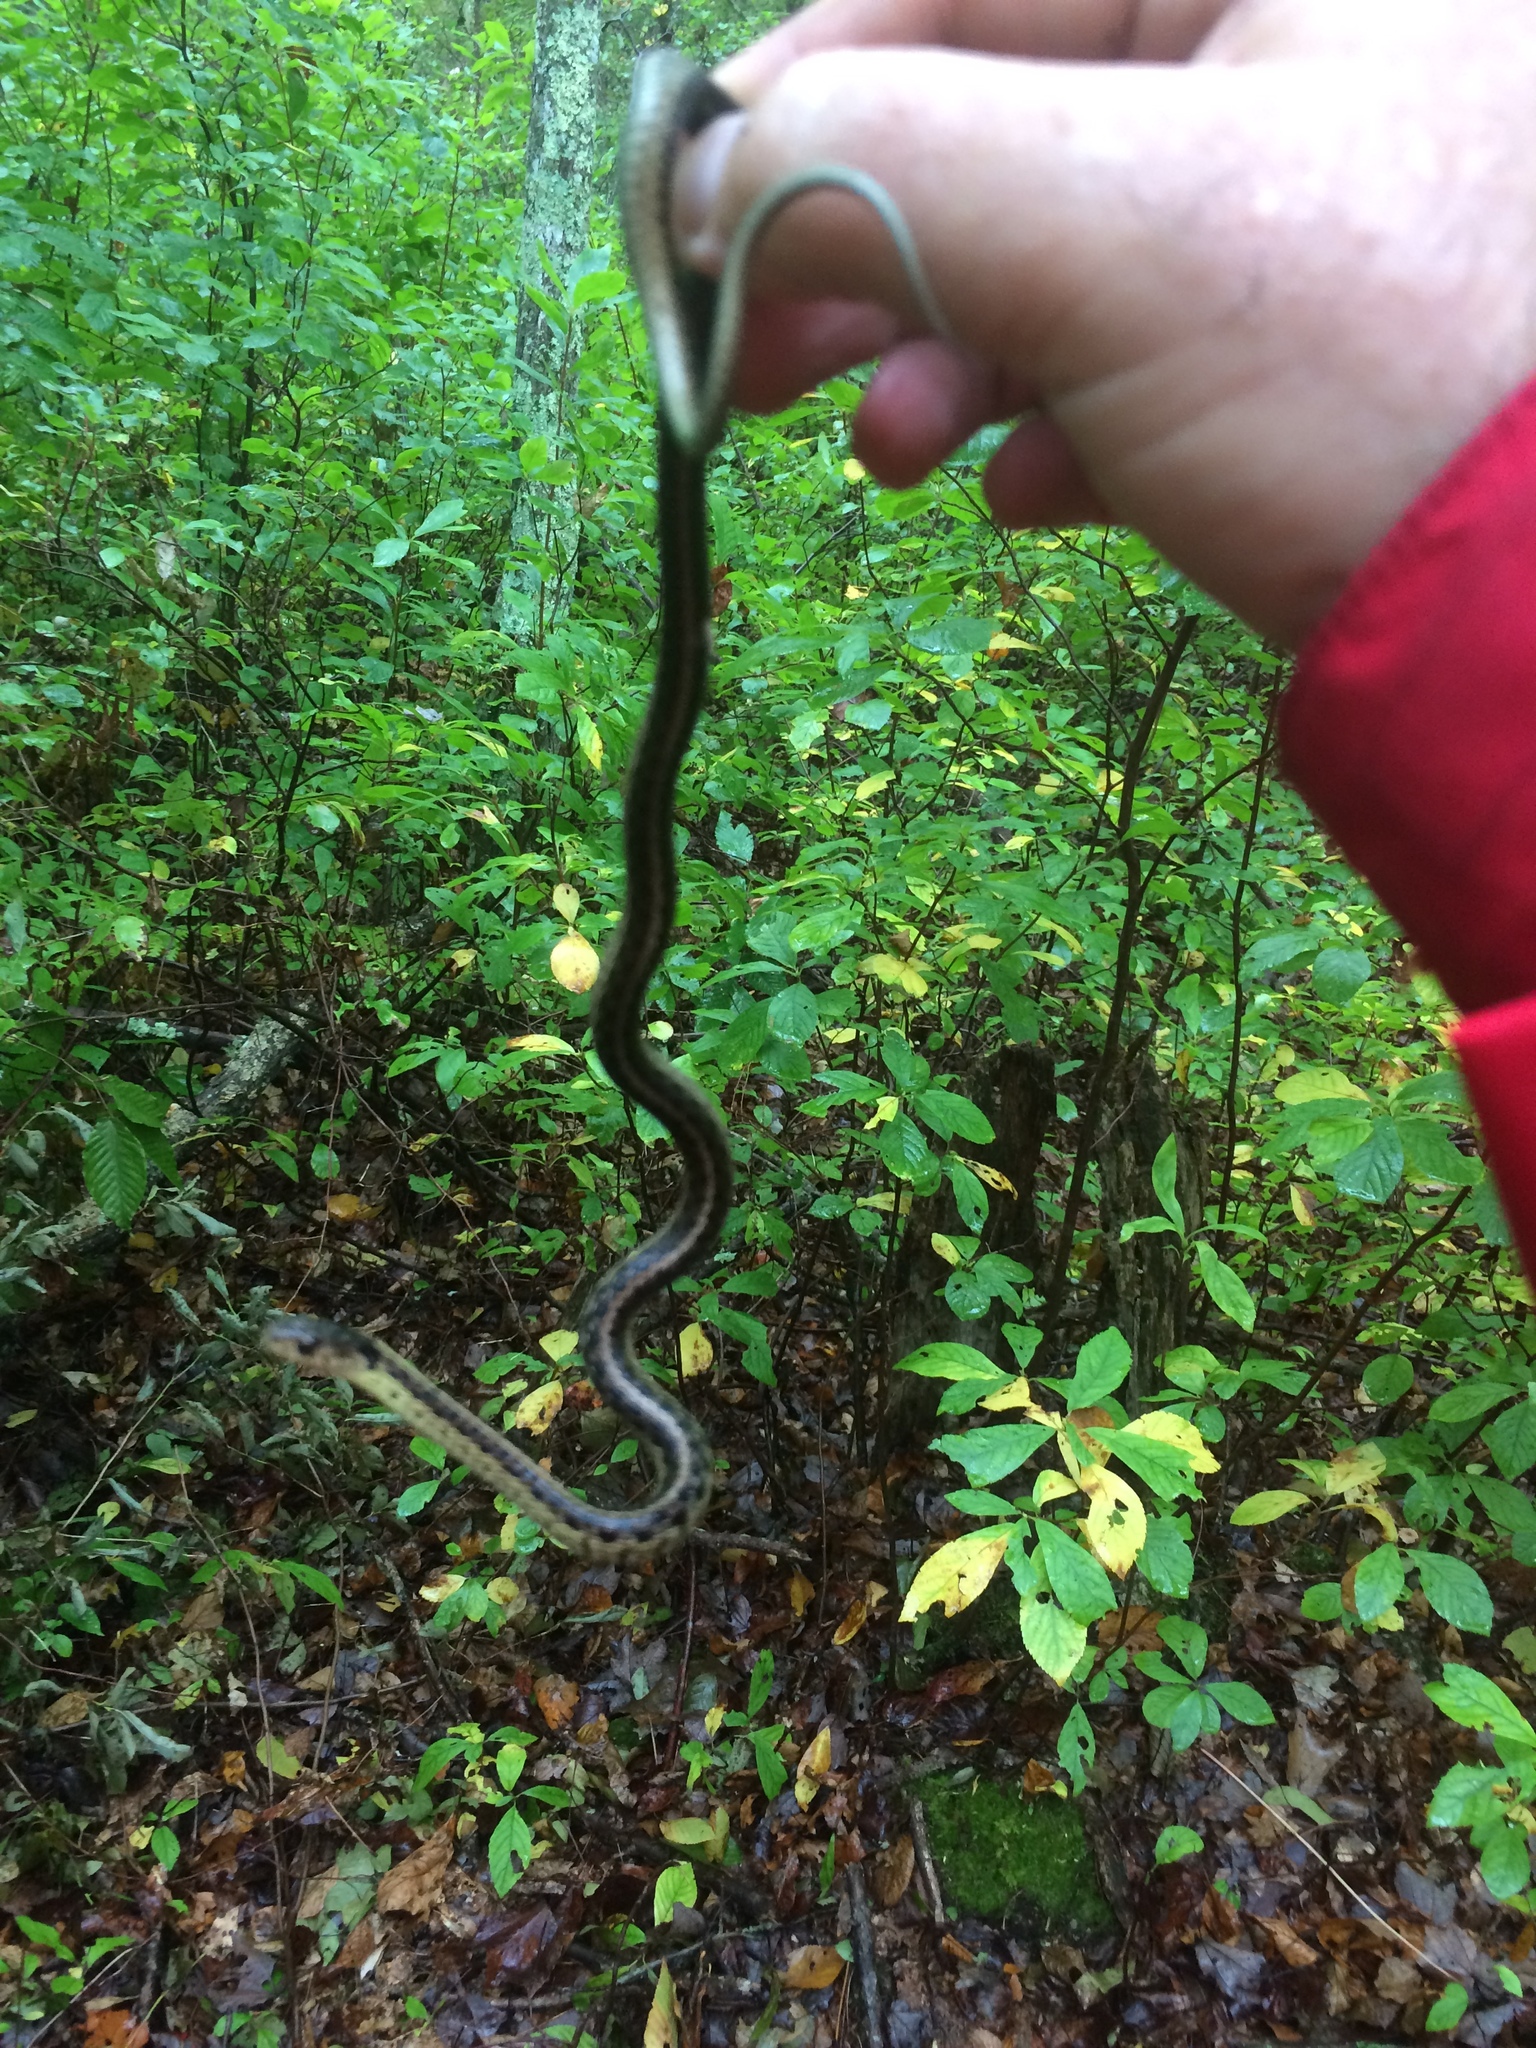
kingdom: Animalia
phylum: Chordata
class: Squamata
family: Colubridae
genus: Thamnophis
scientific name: Thamnophis sirtalis
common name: Common garter snake
